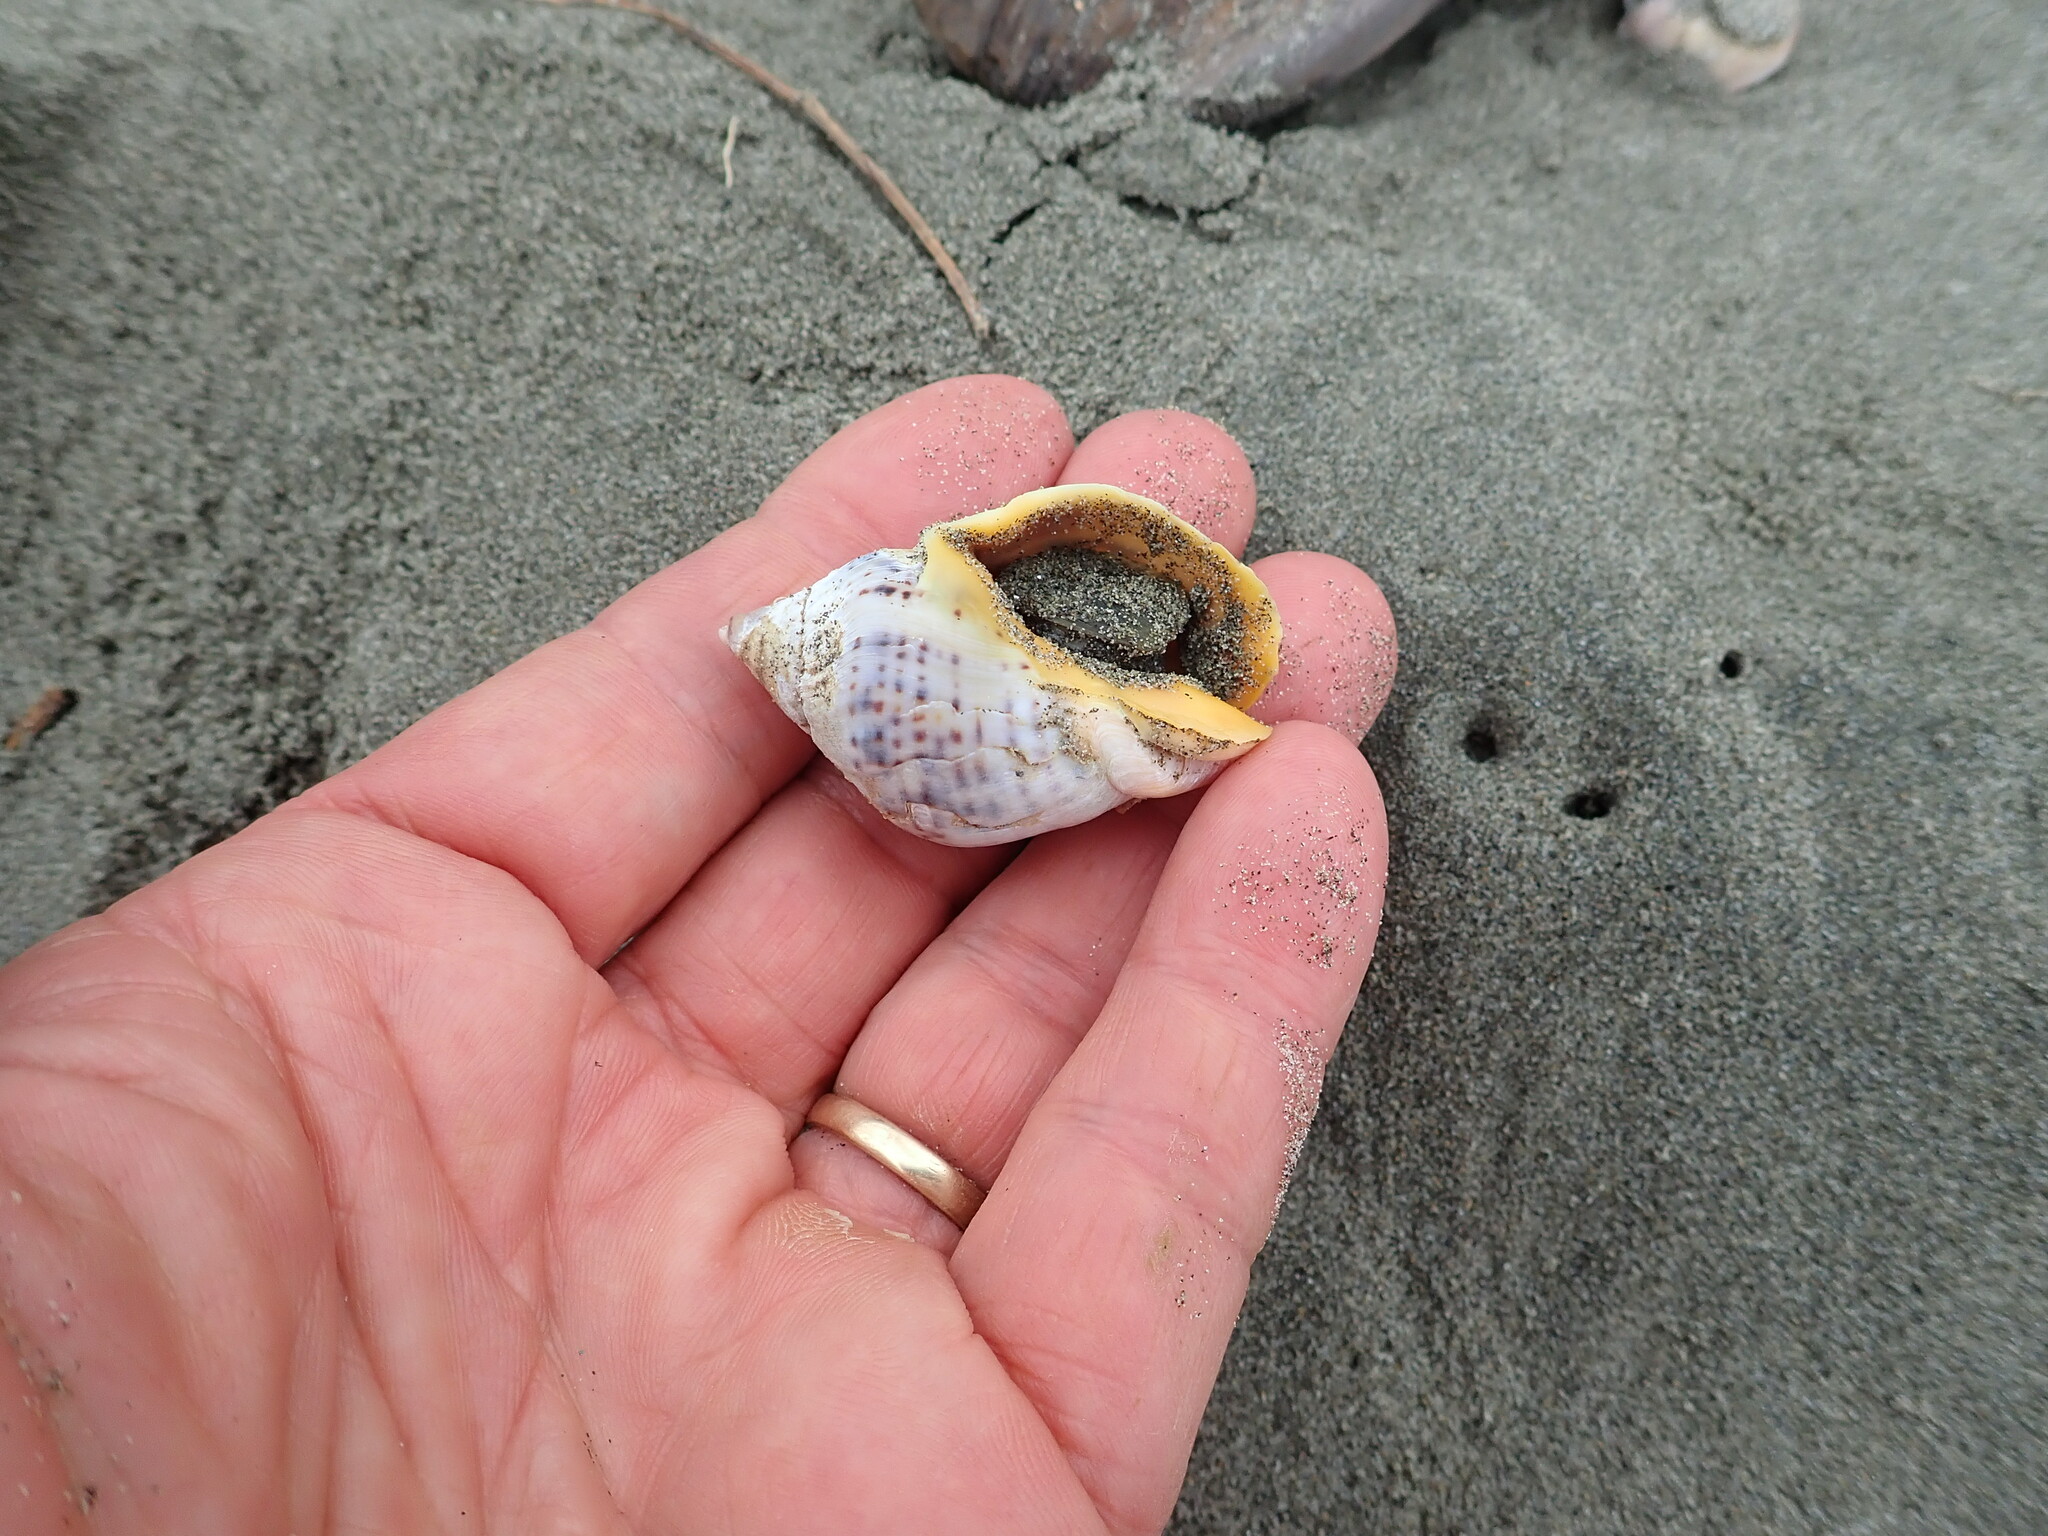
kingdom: Animalia
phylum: Mollusca
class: Gastropoda
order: Neogastropoda
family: Cominellidae
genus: Cominella
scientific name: Cominella adspersa
